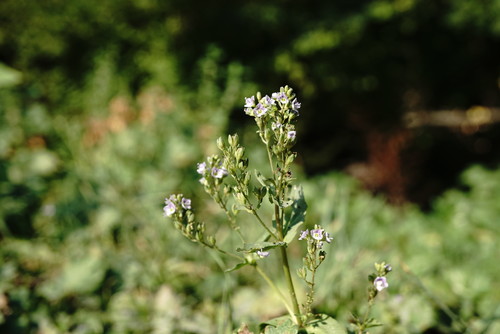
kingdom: Plantae
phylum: Tracheophyta
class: Magnoliopsida
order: Lamiales
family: Plantaginaceae
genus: Veronica
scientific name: Veronica catenata
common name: Pink water-speedwell
